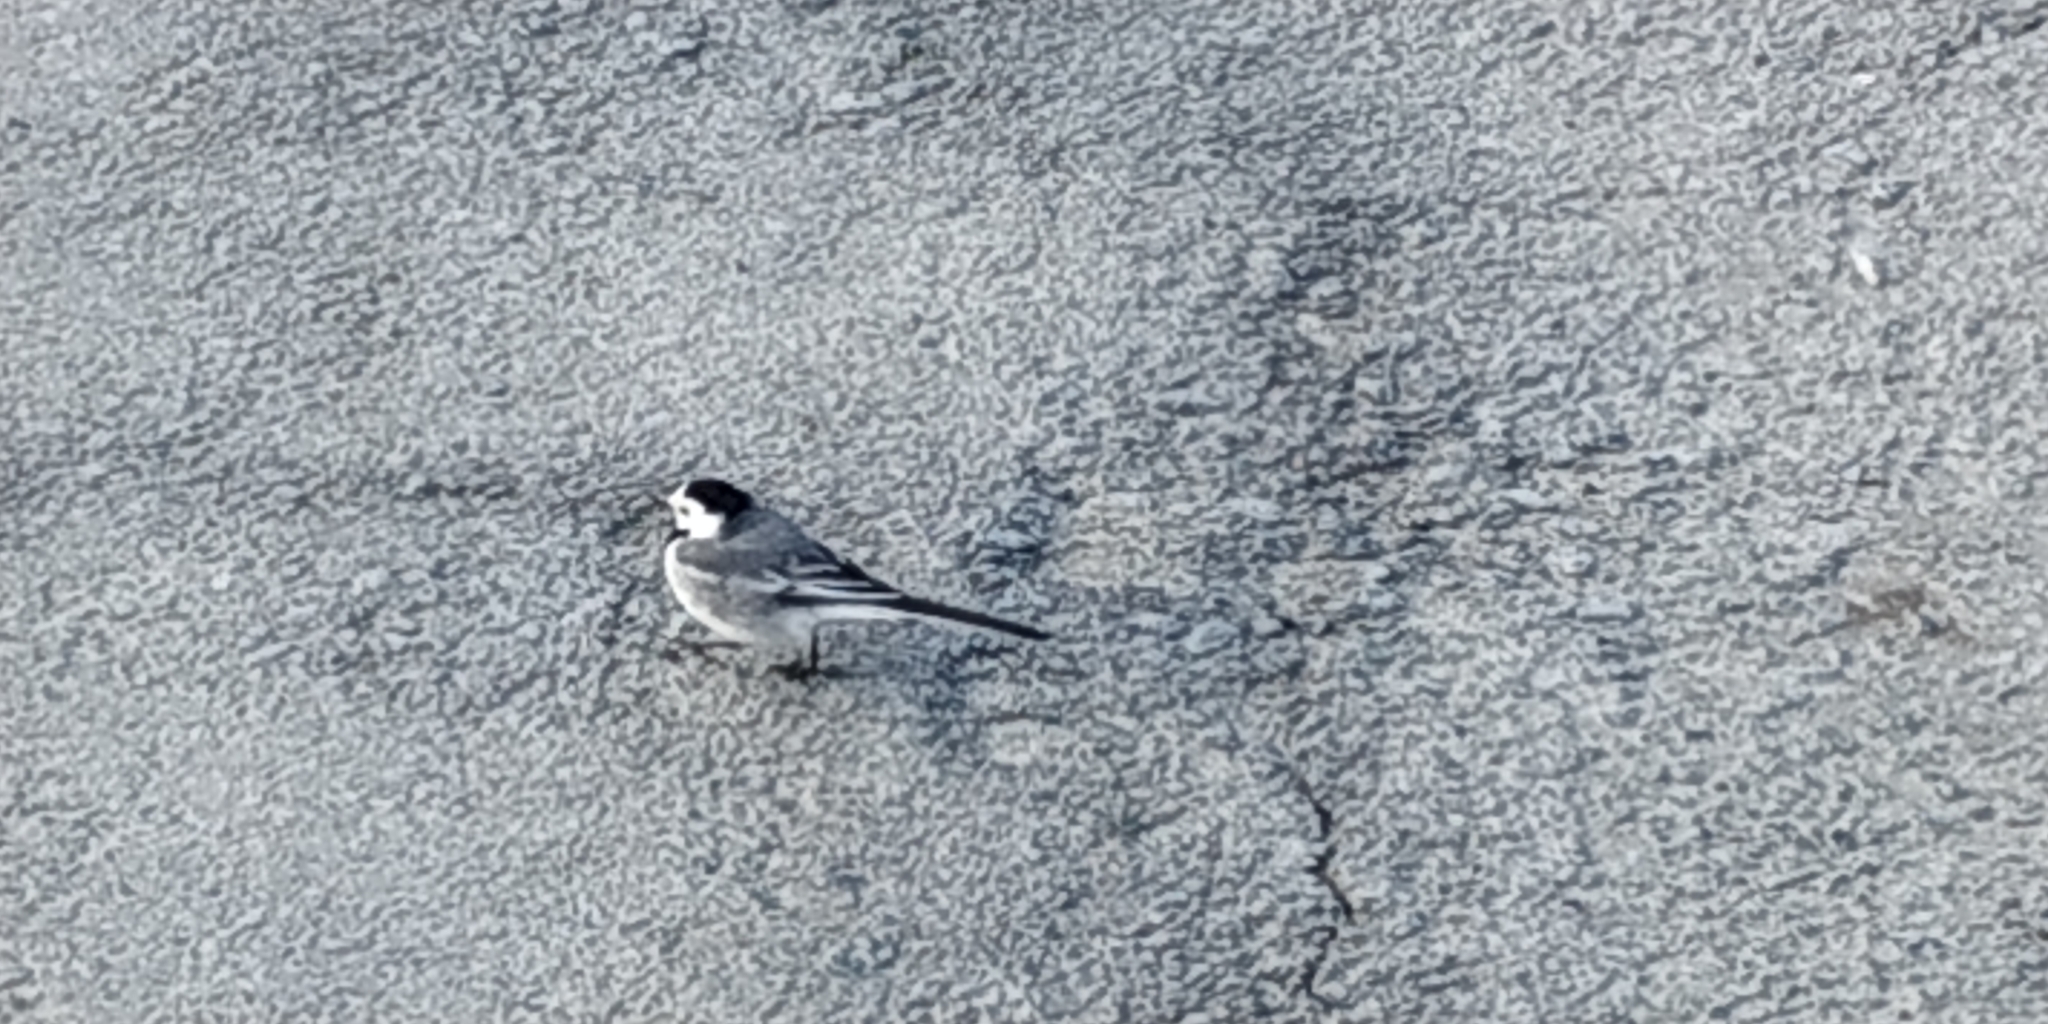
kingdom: Animalia
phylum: Chordata
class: Aves
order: Passeriformes
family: Motacillidae
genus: Motacilla
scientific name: Motacilla alba
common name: White wagtail
